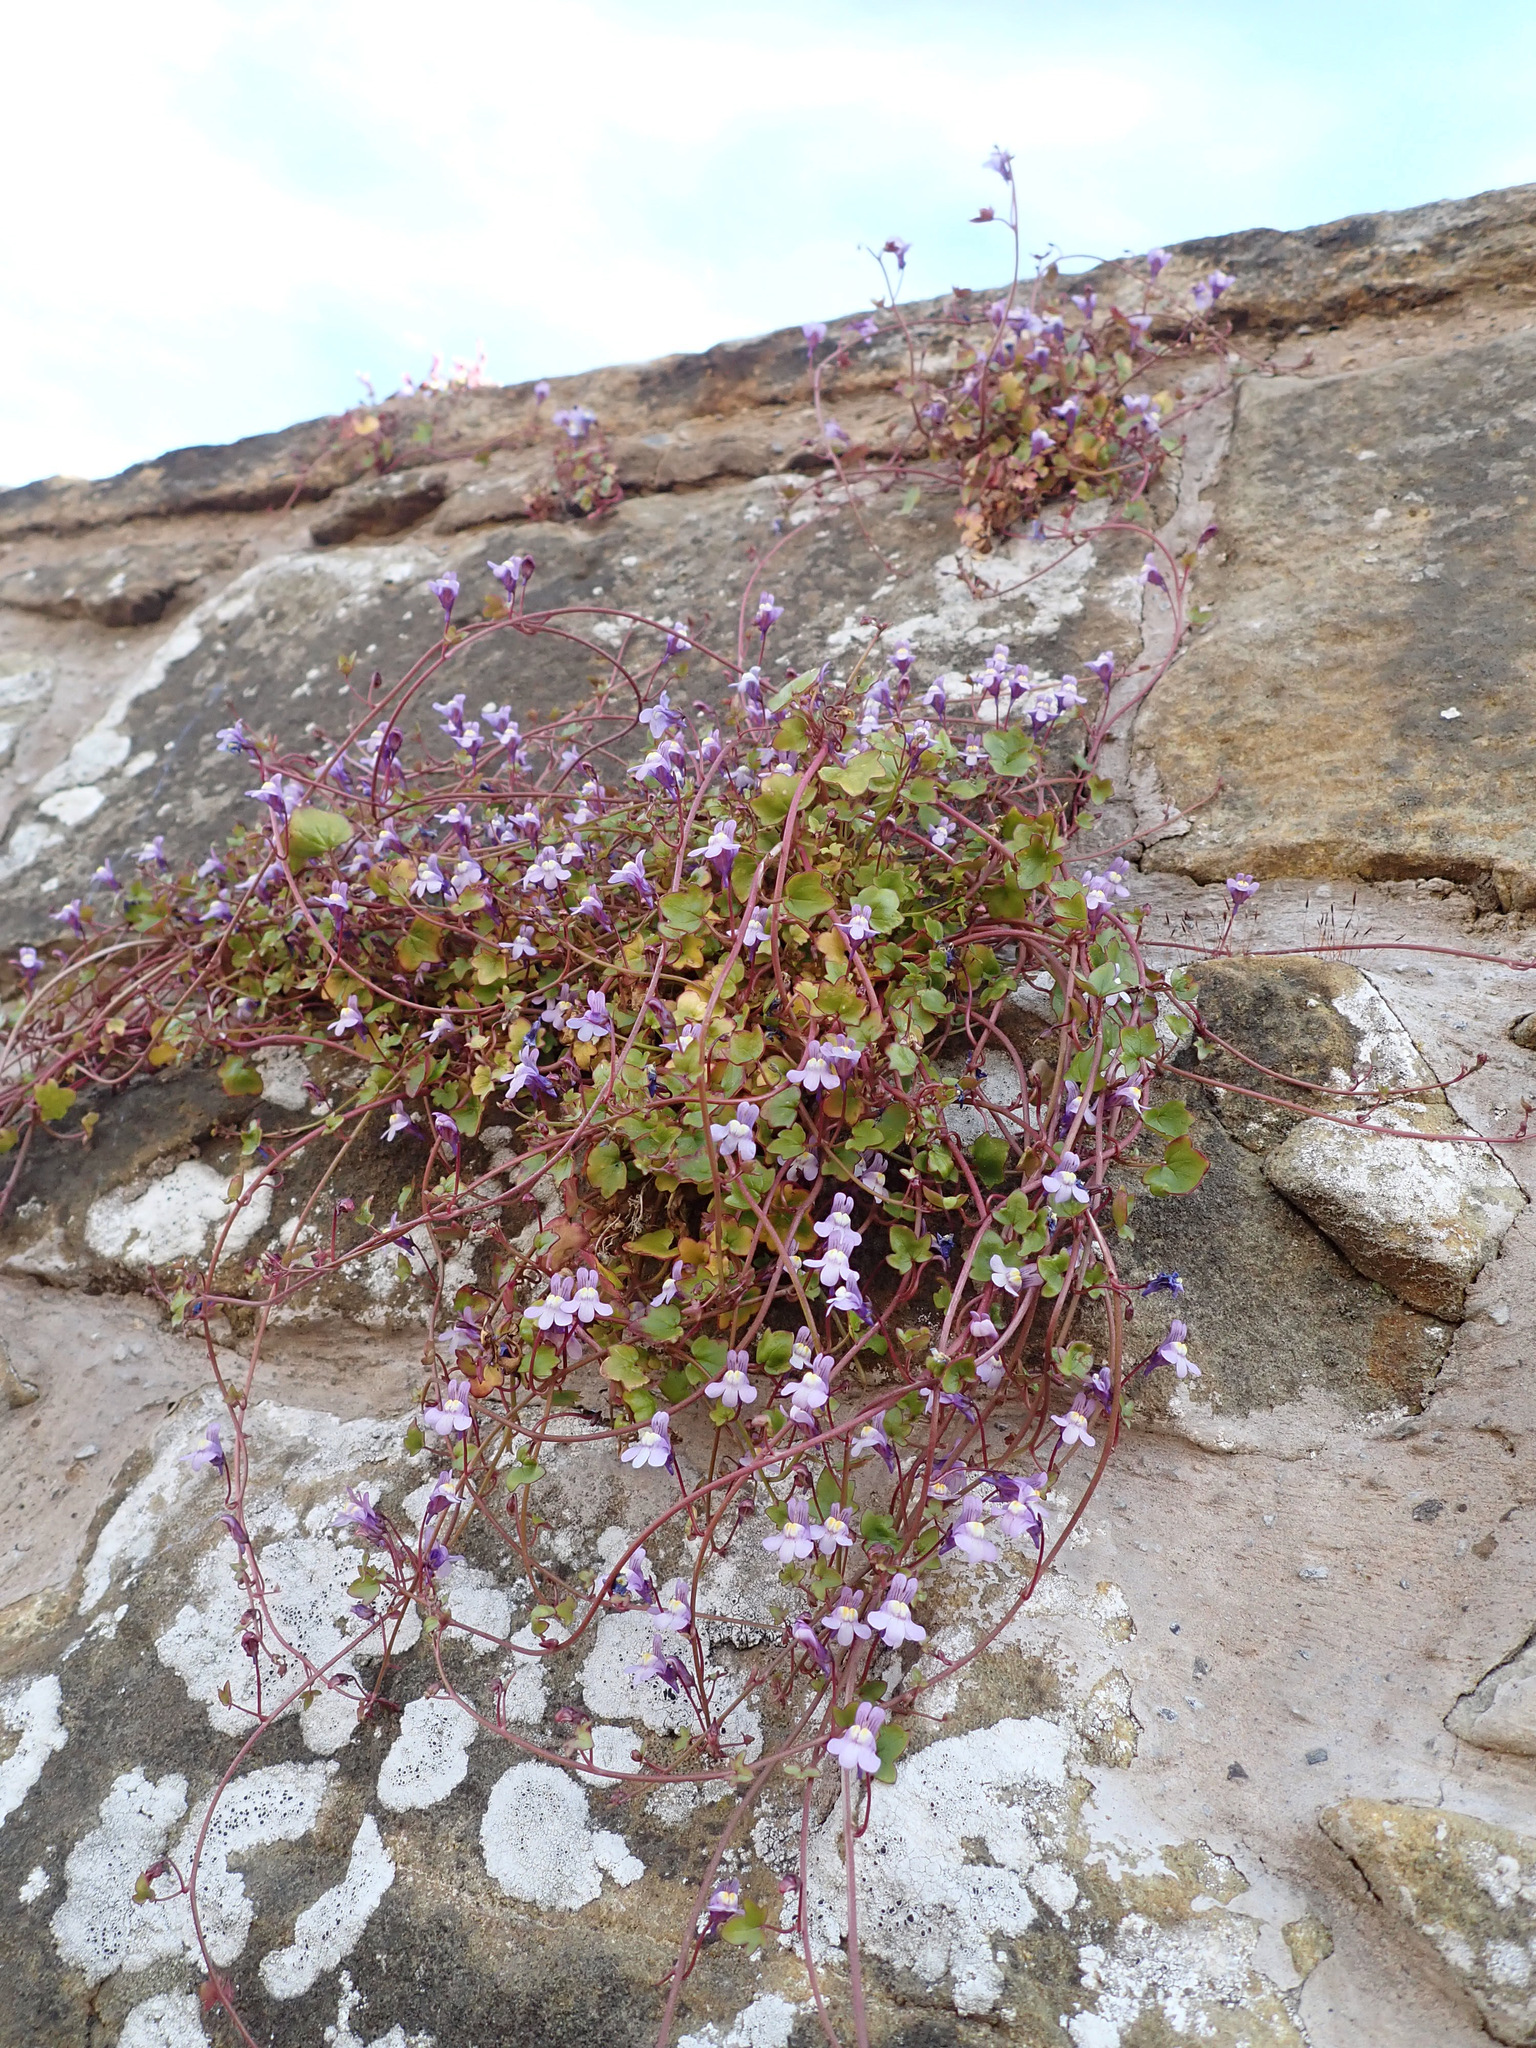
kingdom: Plantae
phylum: Tracheophyta
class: Magnoliopsida
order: Lamiales
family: Plantaginaceae
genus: Cymbalaria
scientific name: Cymbalaria muralis
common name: Ivy-leaved toadflax
